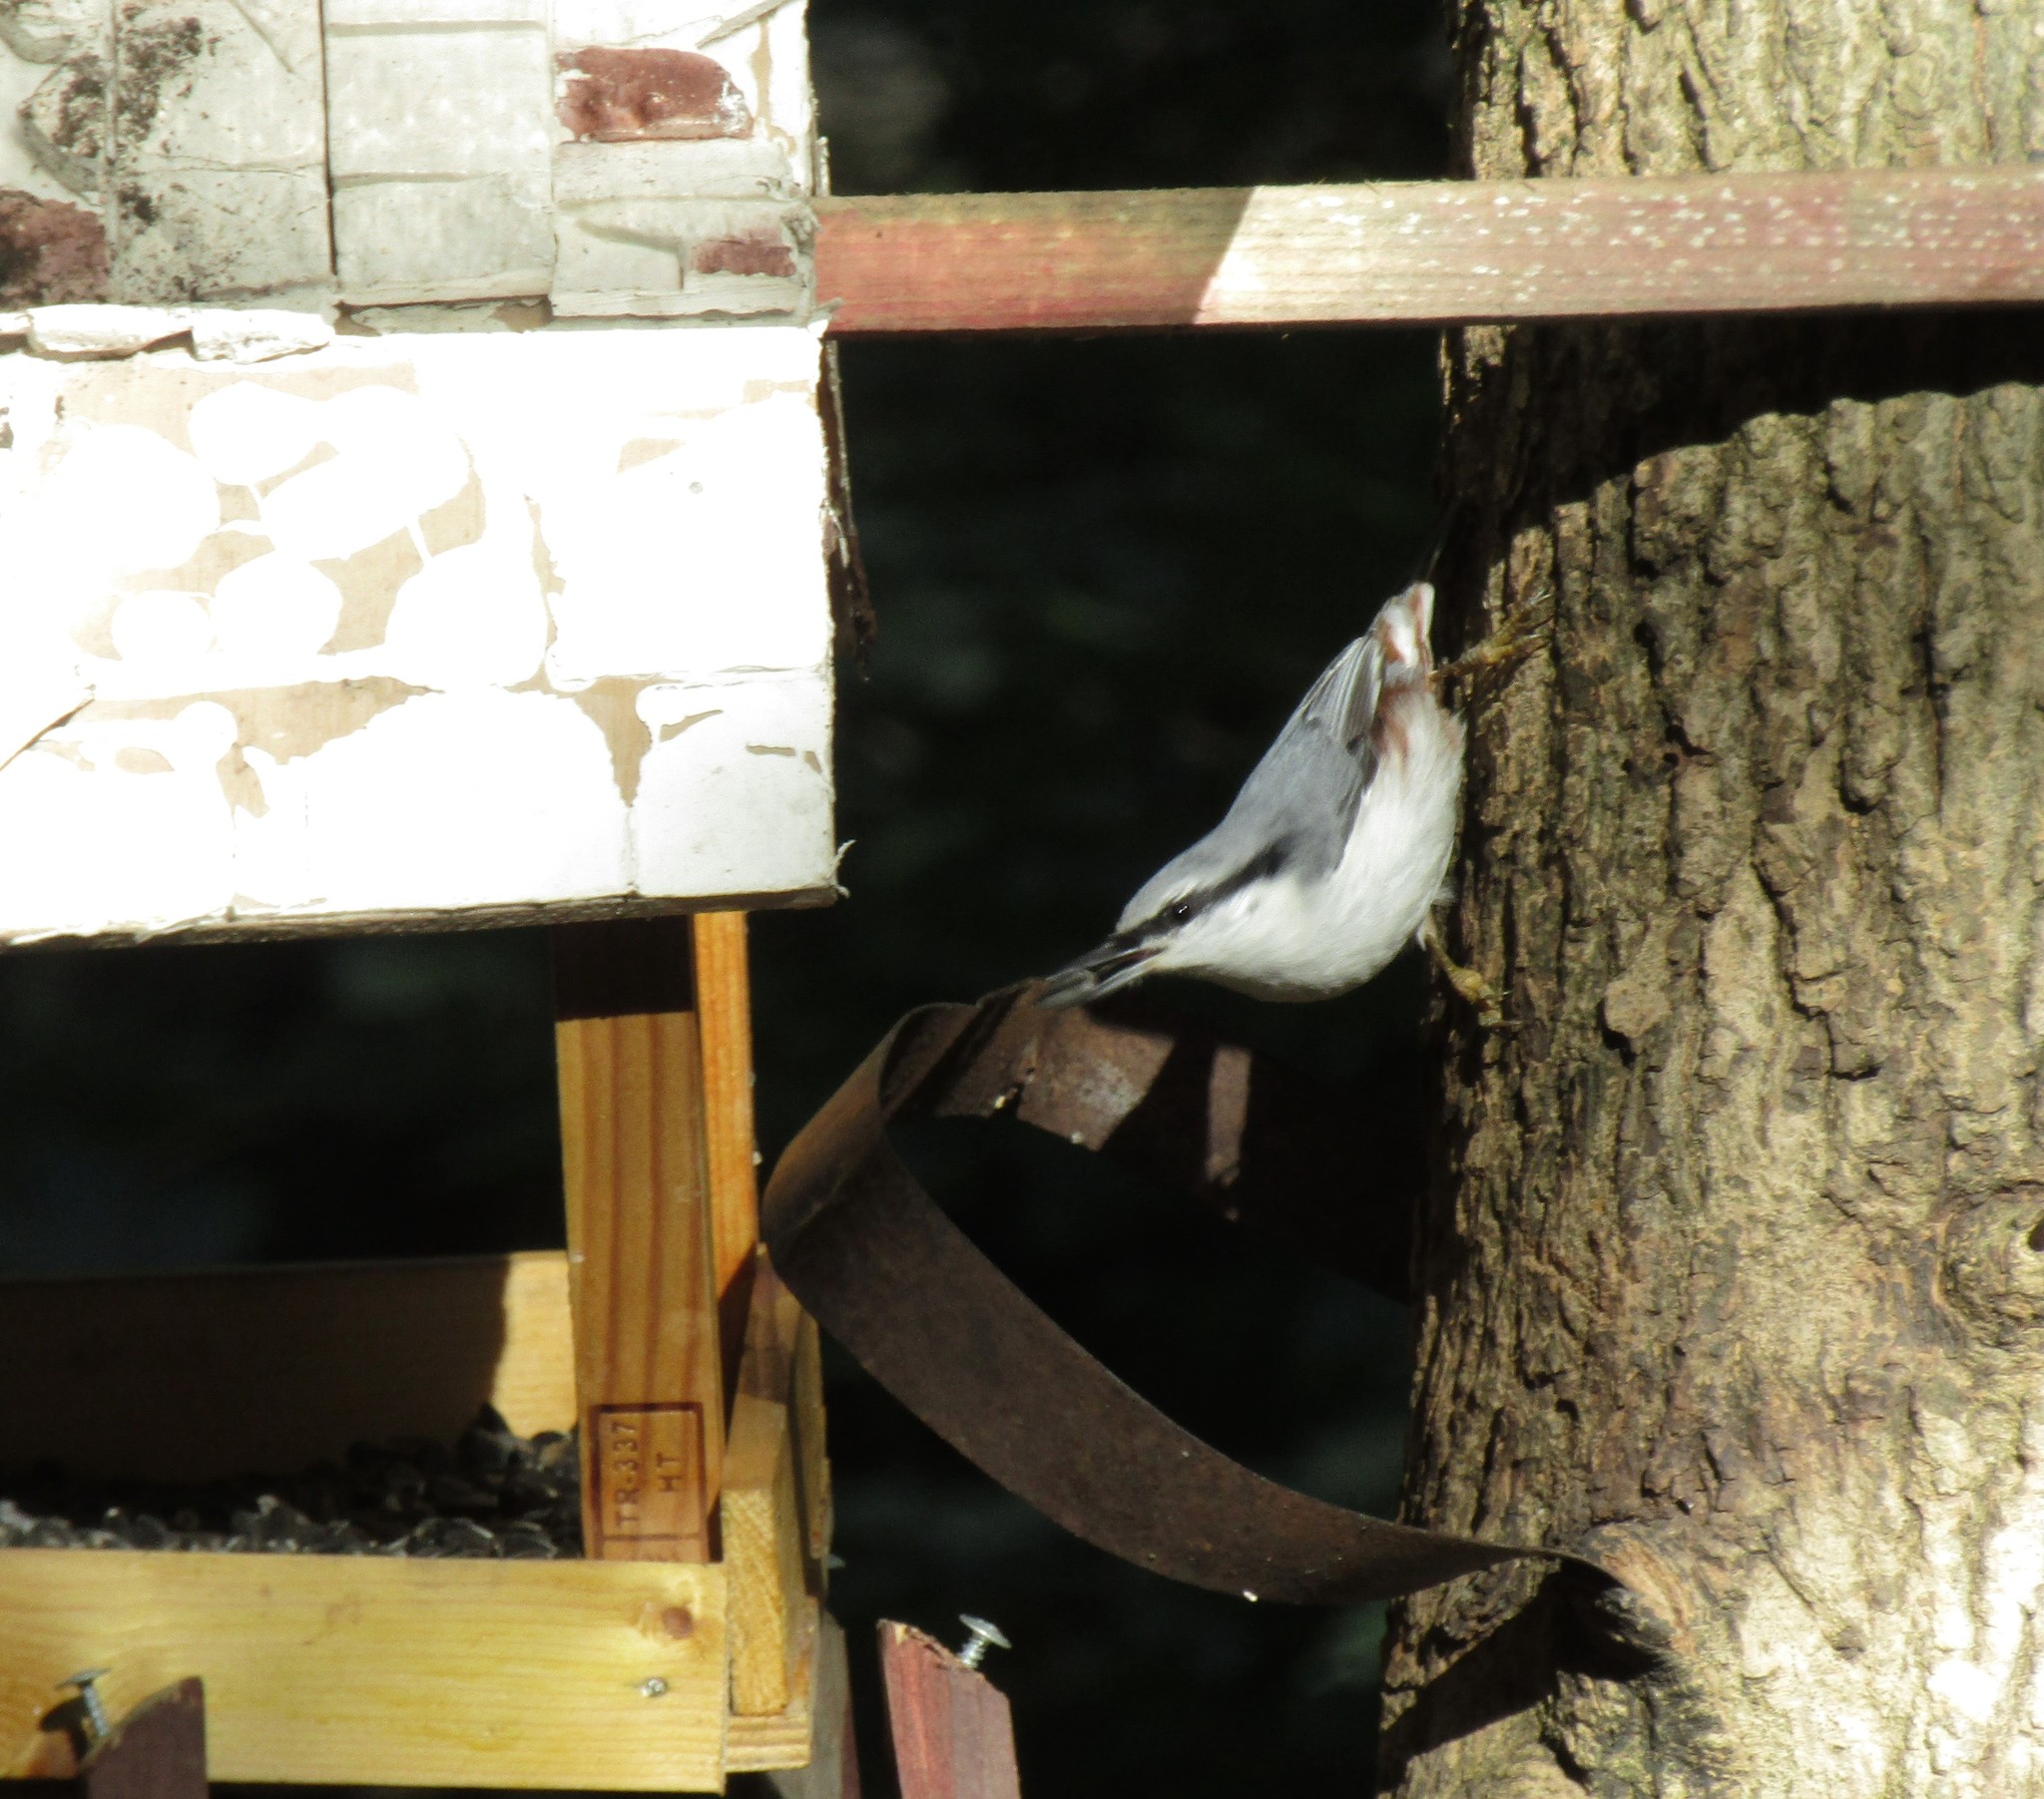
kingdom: Animalia
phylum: Chordata
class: Aves
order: Passeriformes
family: Sittidae
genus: Sitta
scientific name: Sitta europaea
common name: Eurasian nuthatch
